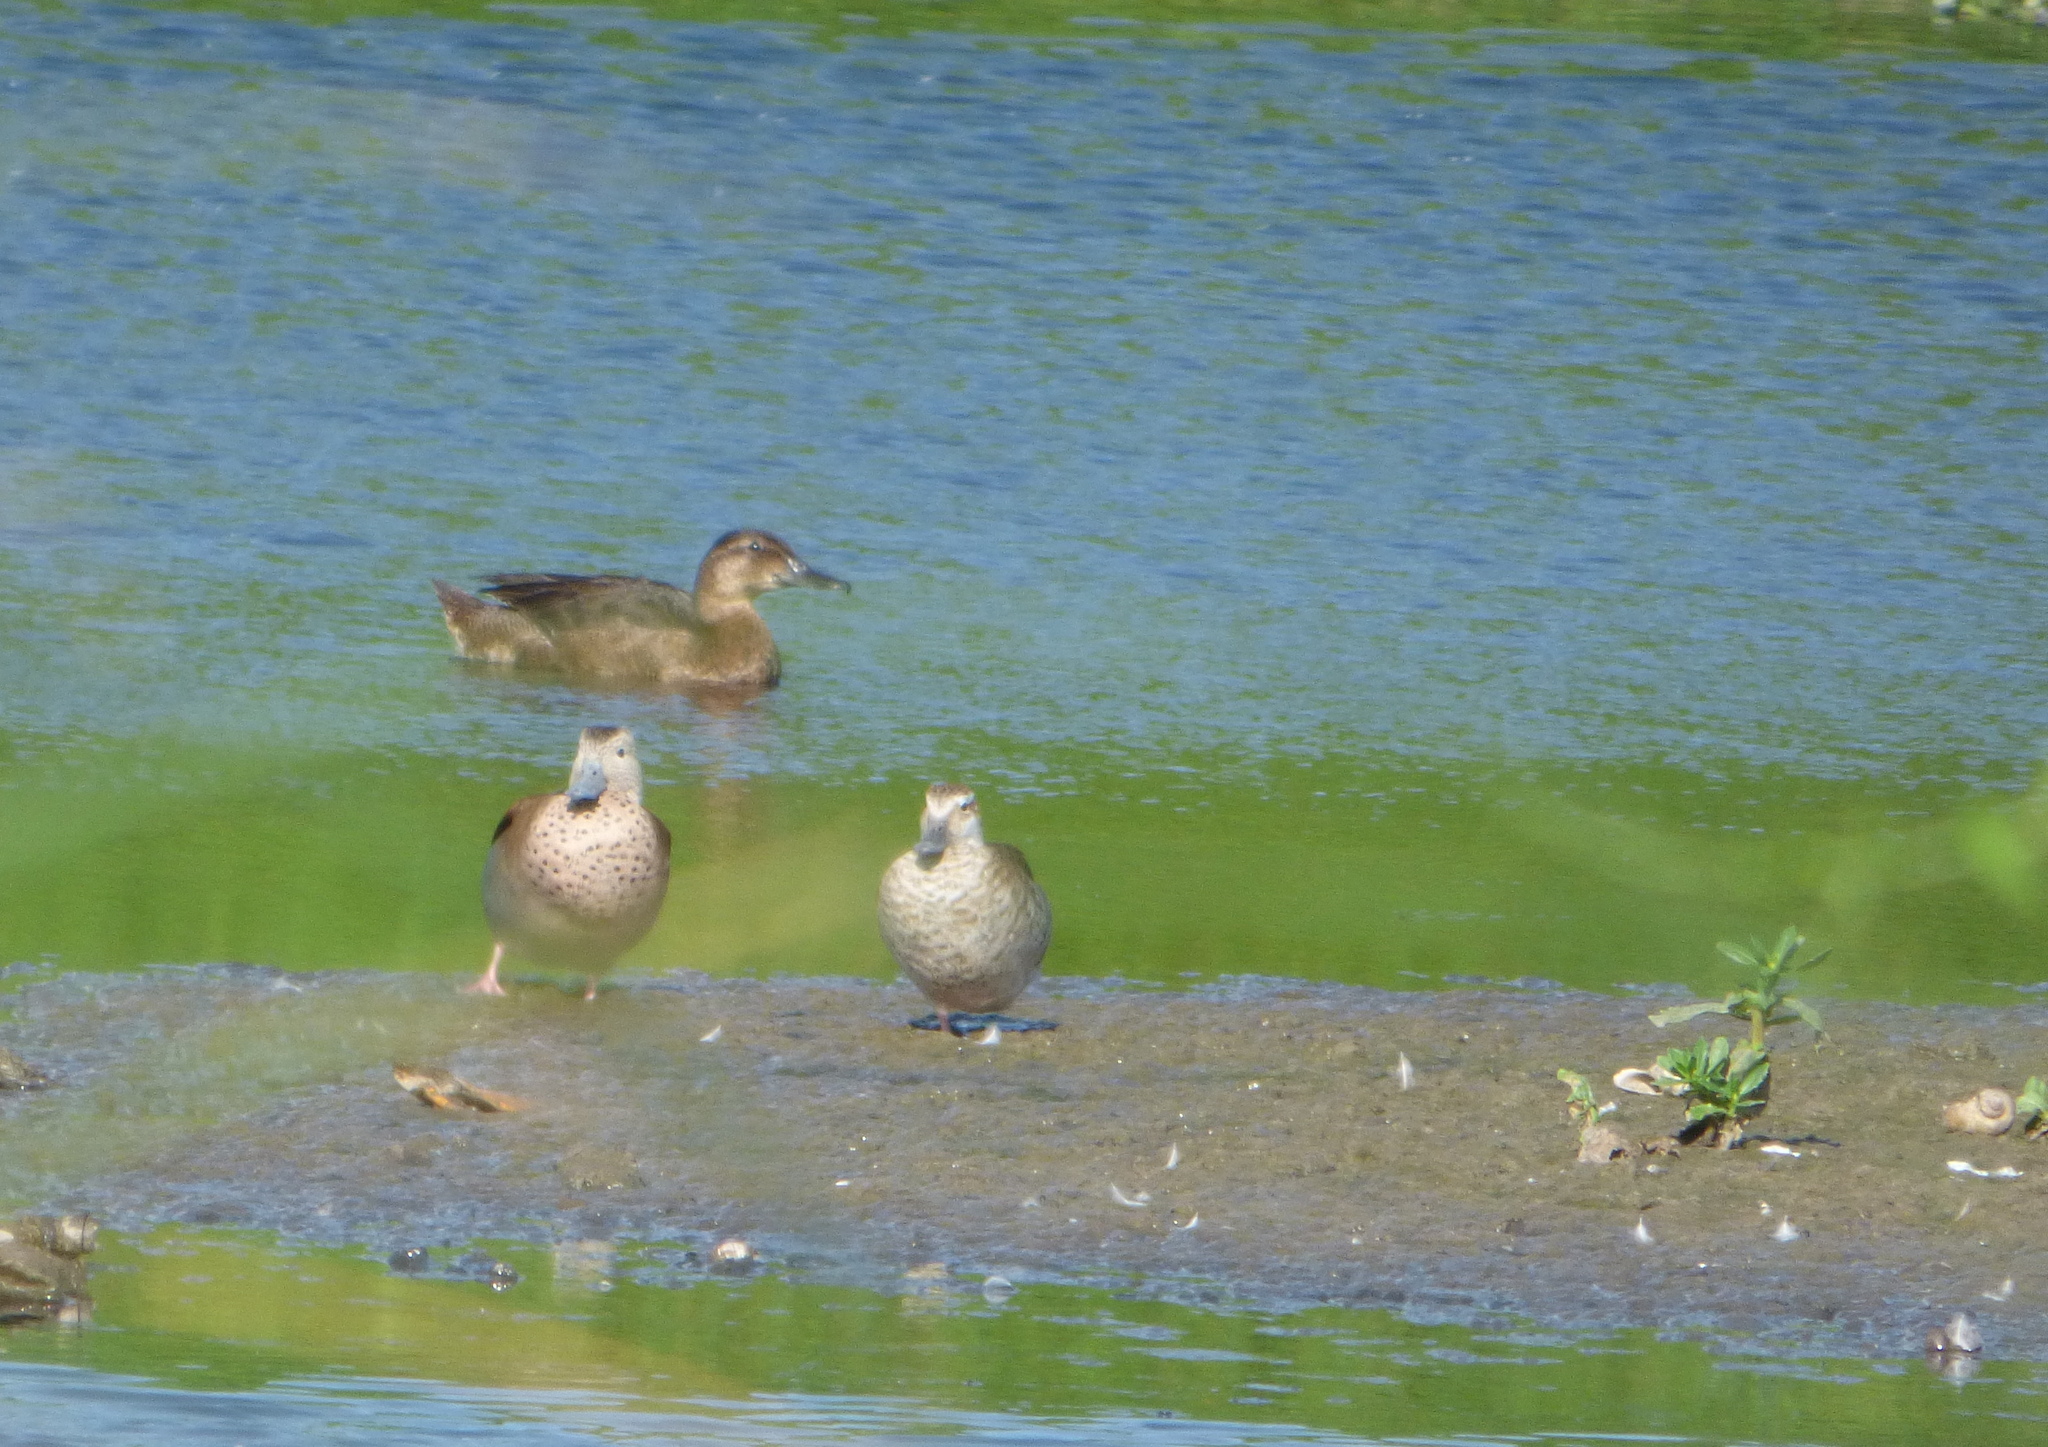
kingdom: Animalia
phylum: Chordata
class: Aves
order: Anseriformes
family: Anatidae
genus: Heteronetta
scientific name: Heteronetta atricapilla
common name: Black-headed duck
